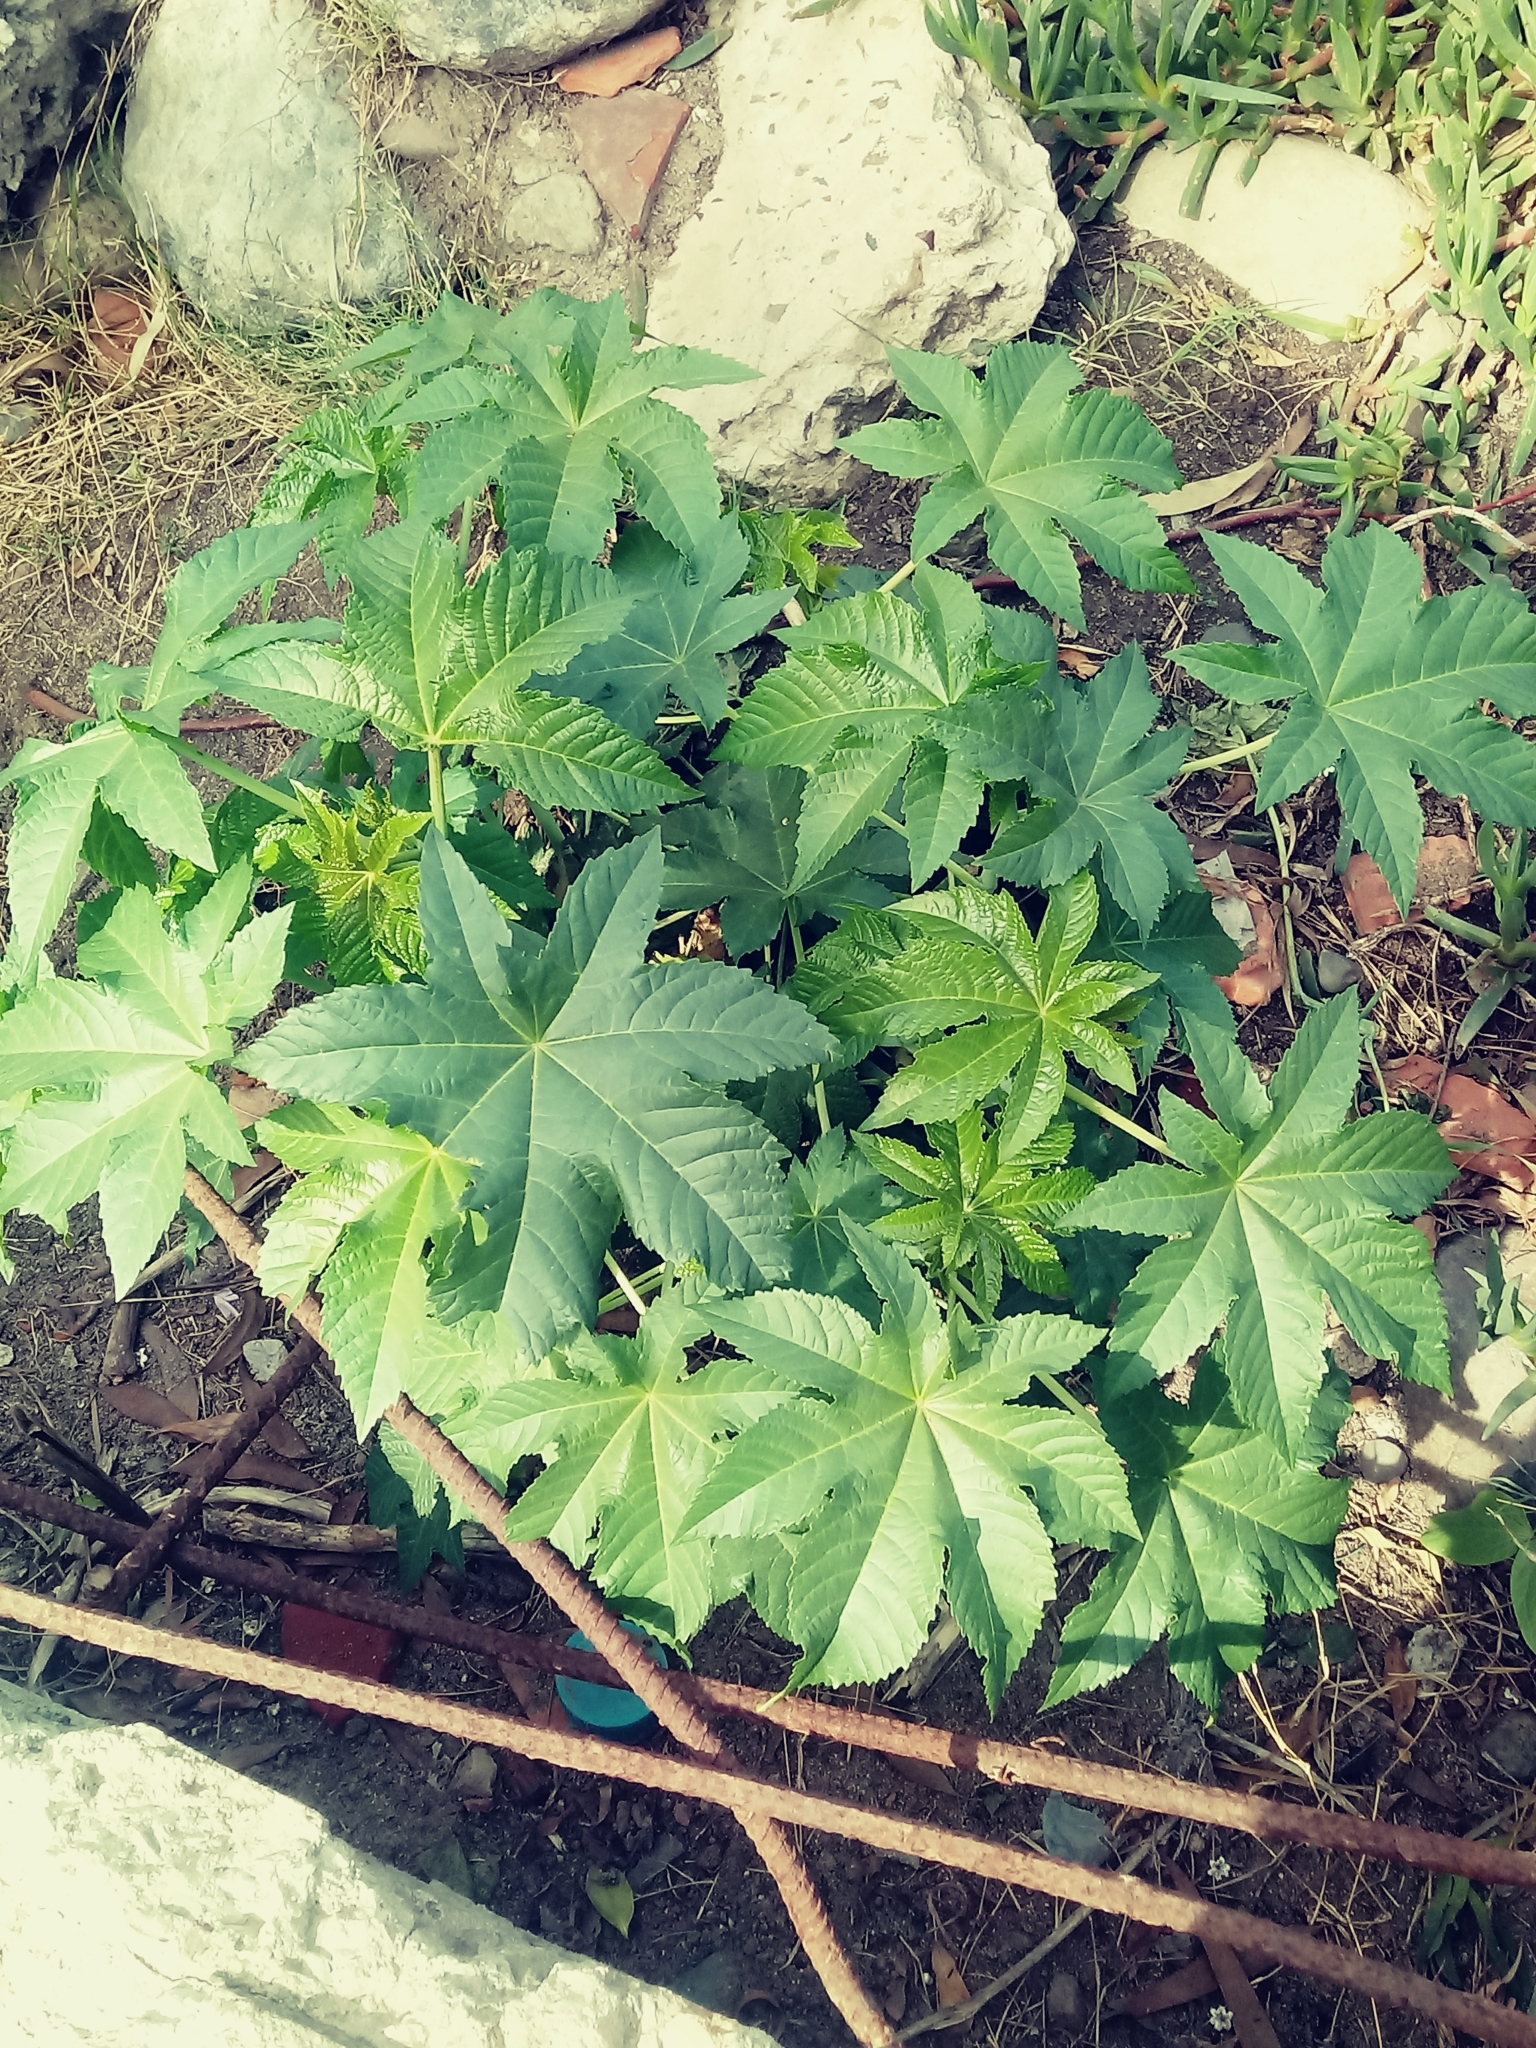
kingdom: Plantae
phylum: Tracheophyta
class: Magnoliopsida
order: Malpighiales
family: Euphorbiaceae
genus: Ricinus
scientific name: Ricinus communis
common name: Castor-oil-plant
